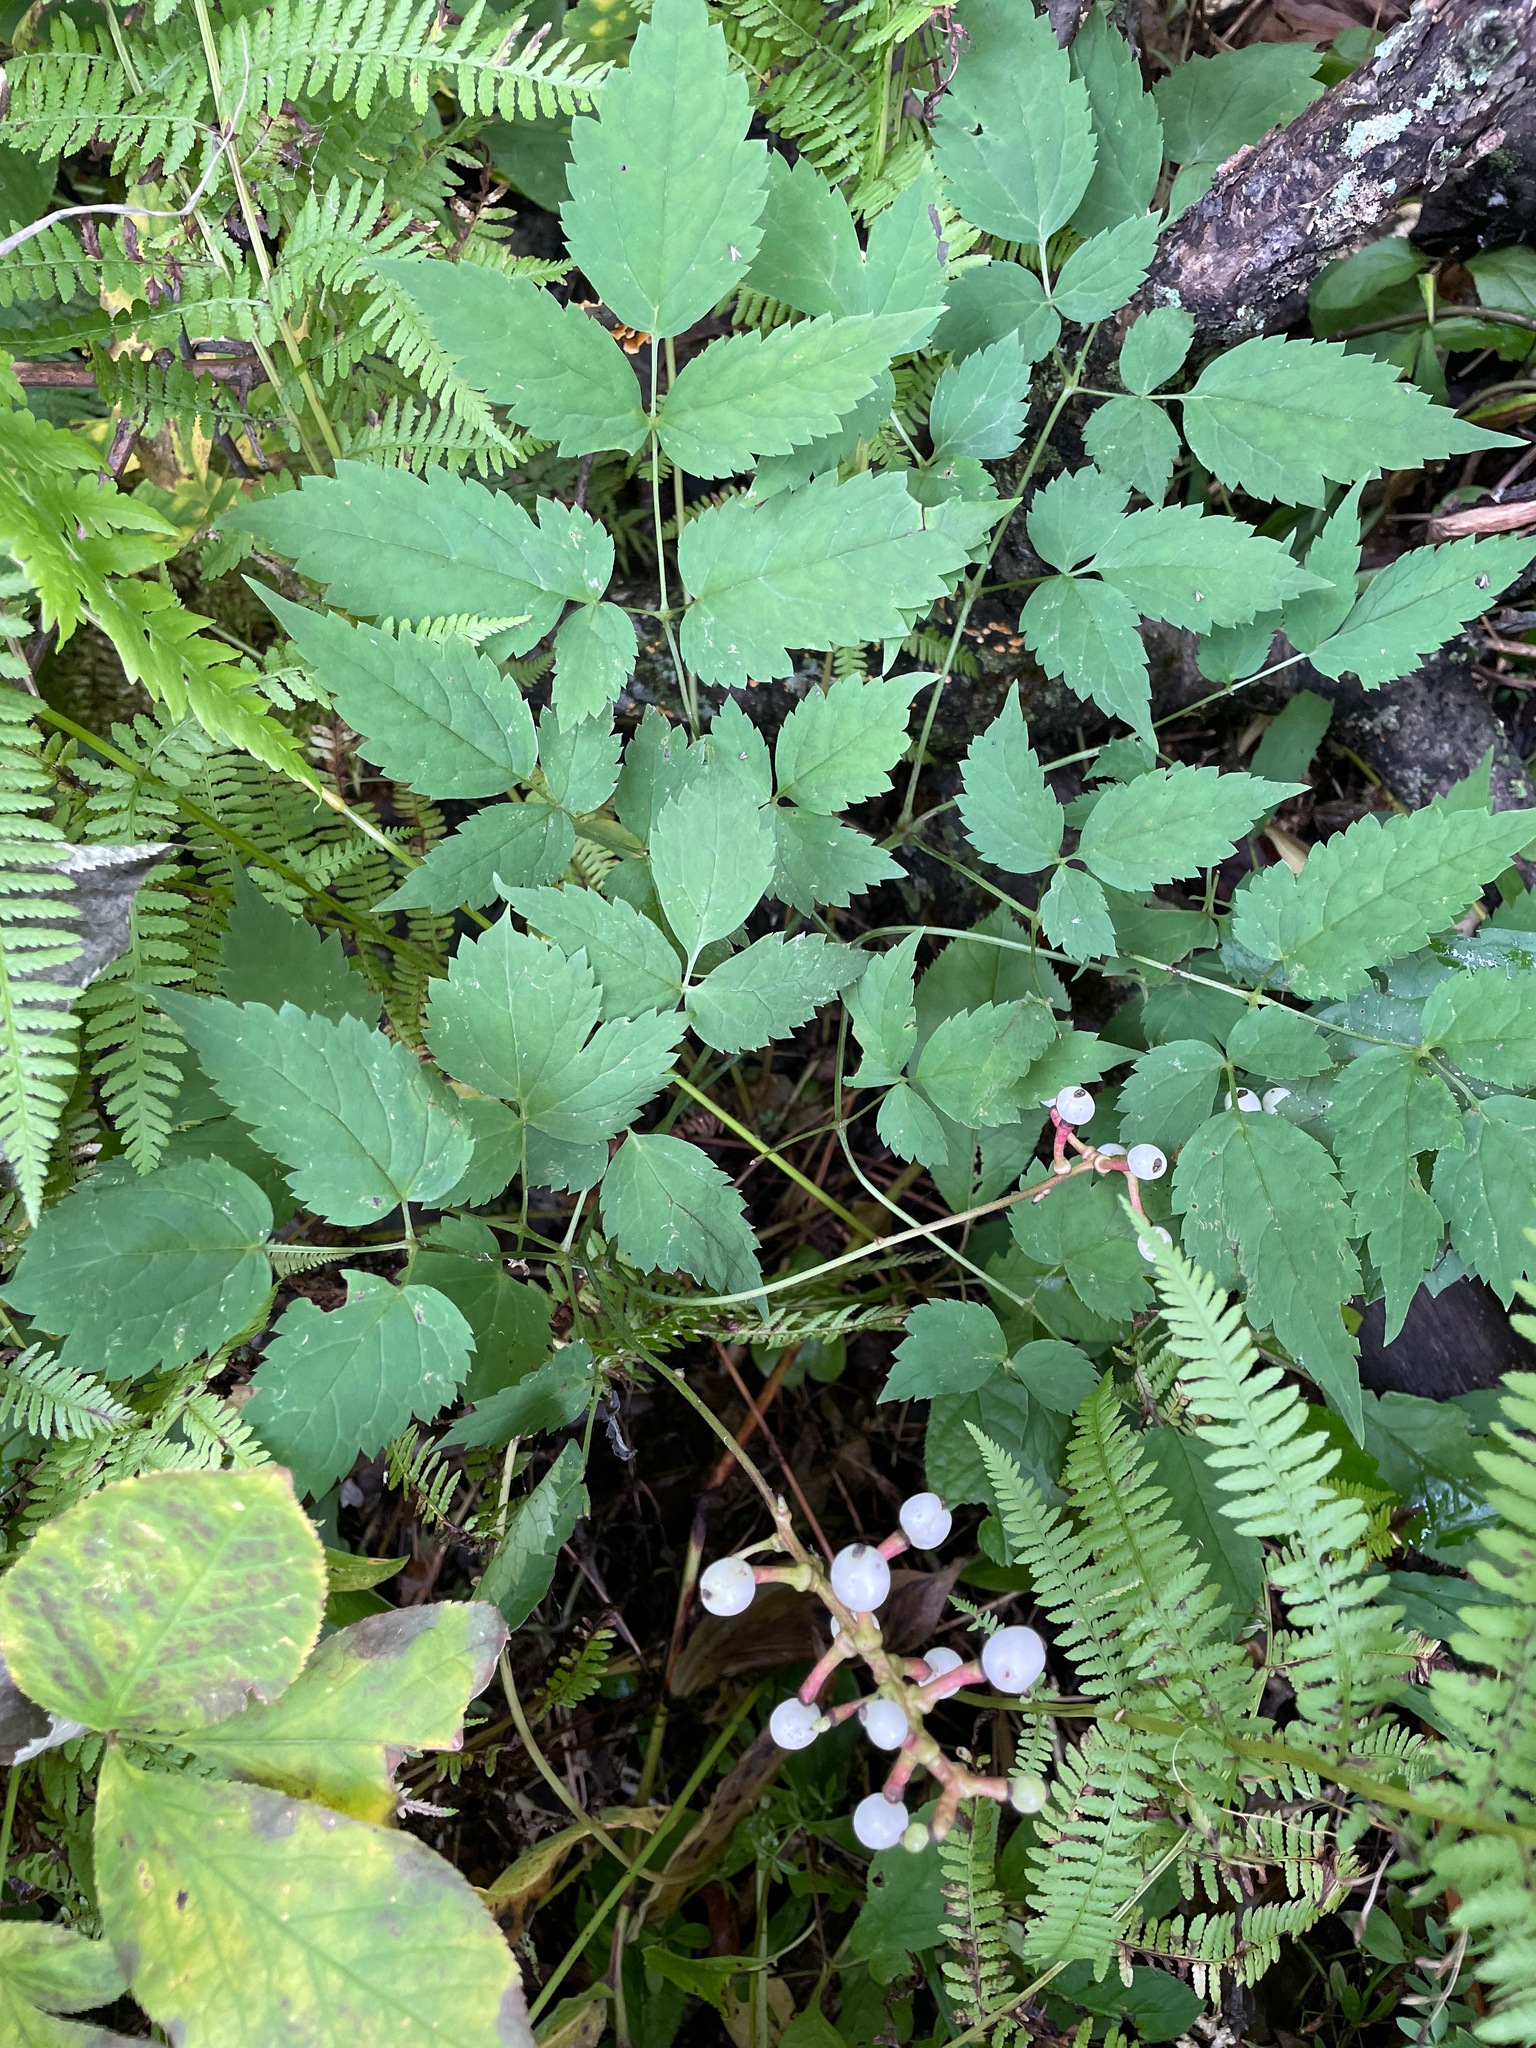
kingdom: Plantae
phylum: Tracheophyta
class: Magnoliopsida
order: Ranunculales
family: Ranunculaceae
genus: Actaea
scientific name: Actaea pachypoda
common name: Doll's-eyes
